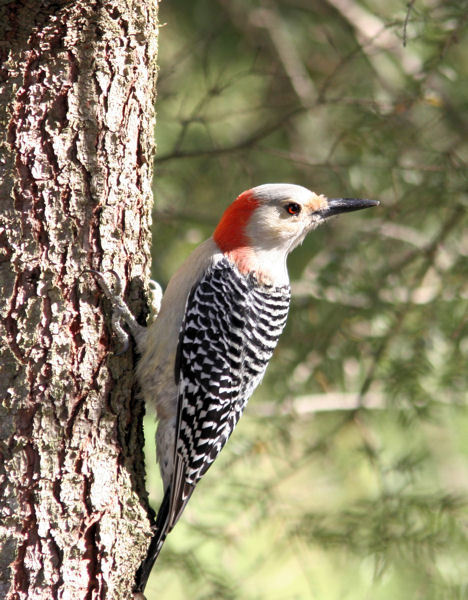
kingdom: Animalia
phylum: Chordata
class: Aves
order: Piciformes
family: Picidae
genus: Melanerpes
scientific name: Melanerpes carolinus
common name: Red-bellied woodpecker
